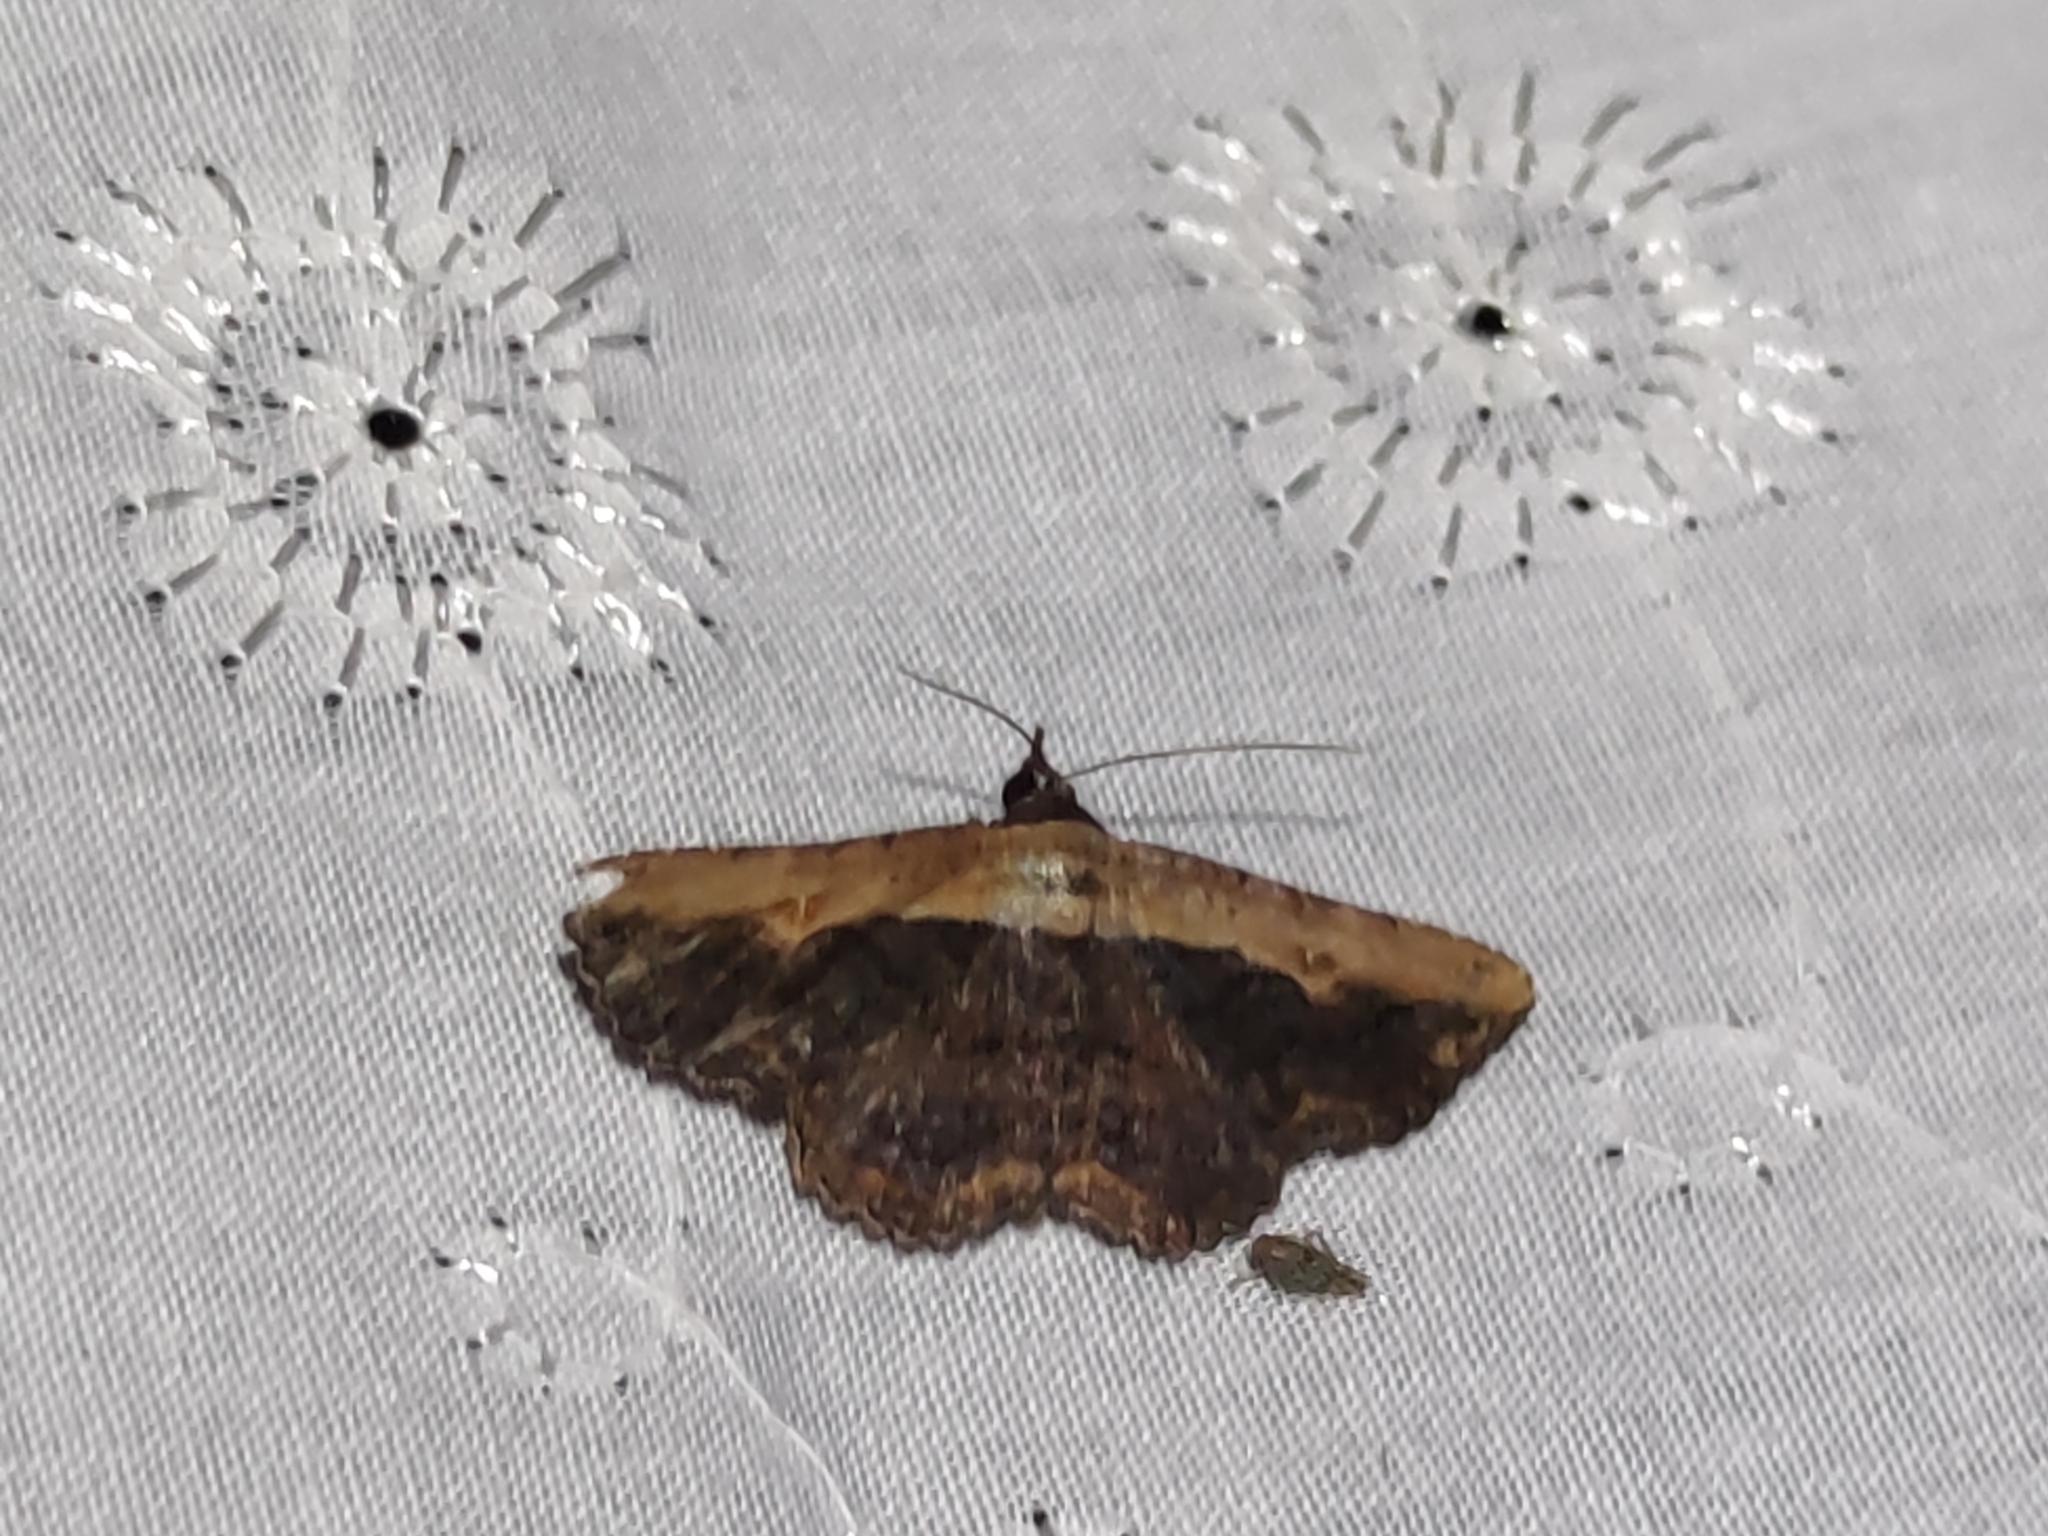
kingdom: Animalia
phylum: Arthropoda
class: Insecta
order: Lepidoptera
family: Erebidae
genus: Selenisa
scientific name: Selenisa sueroides
